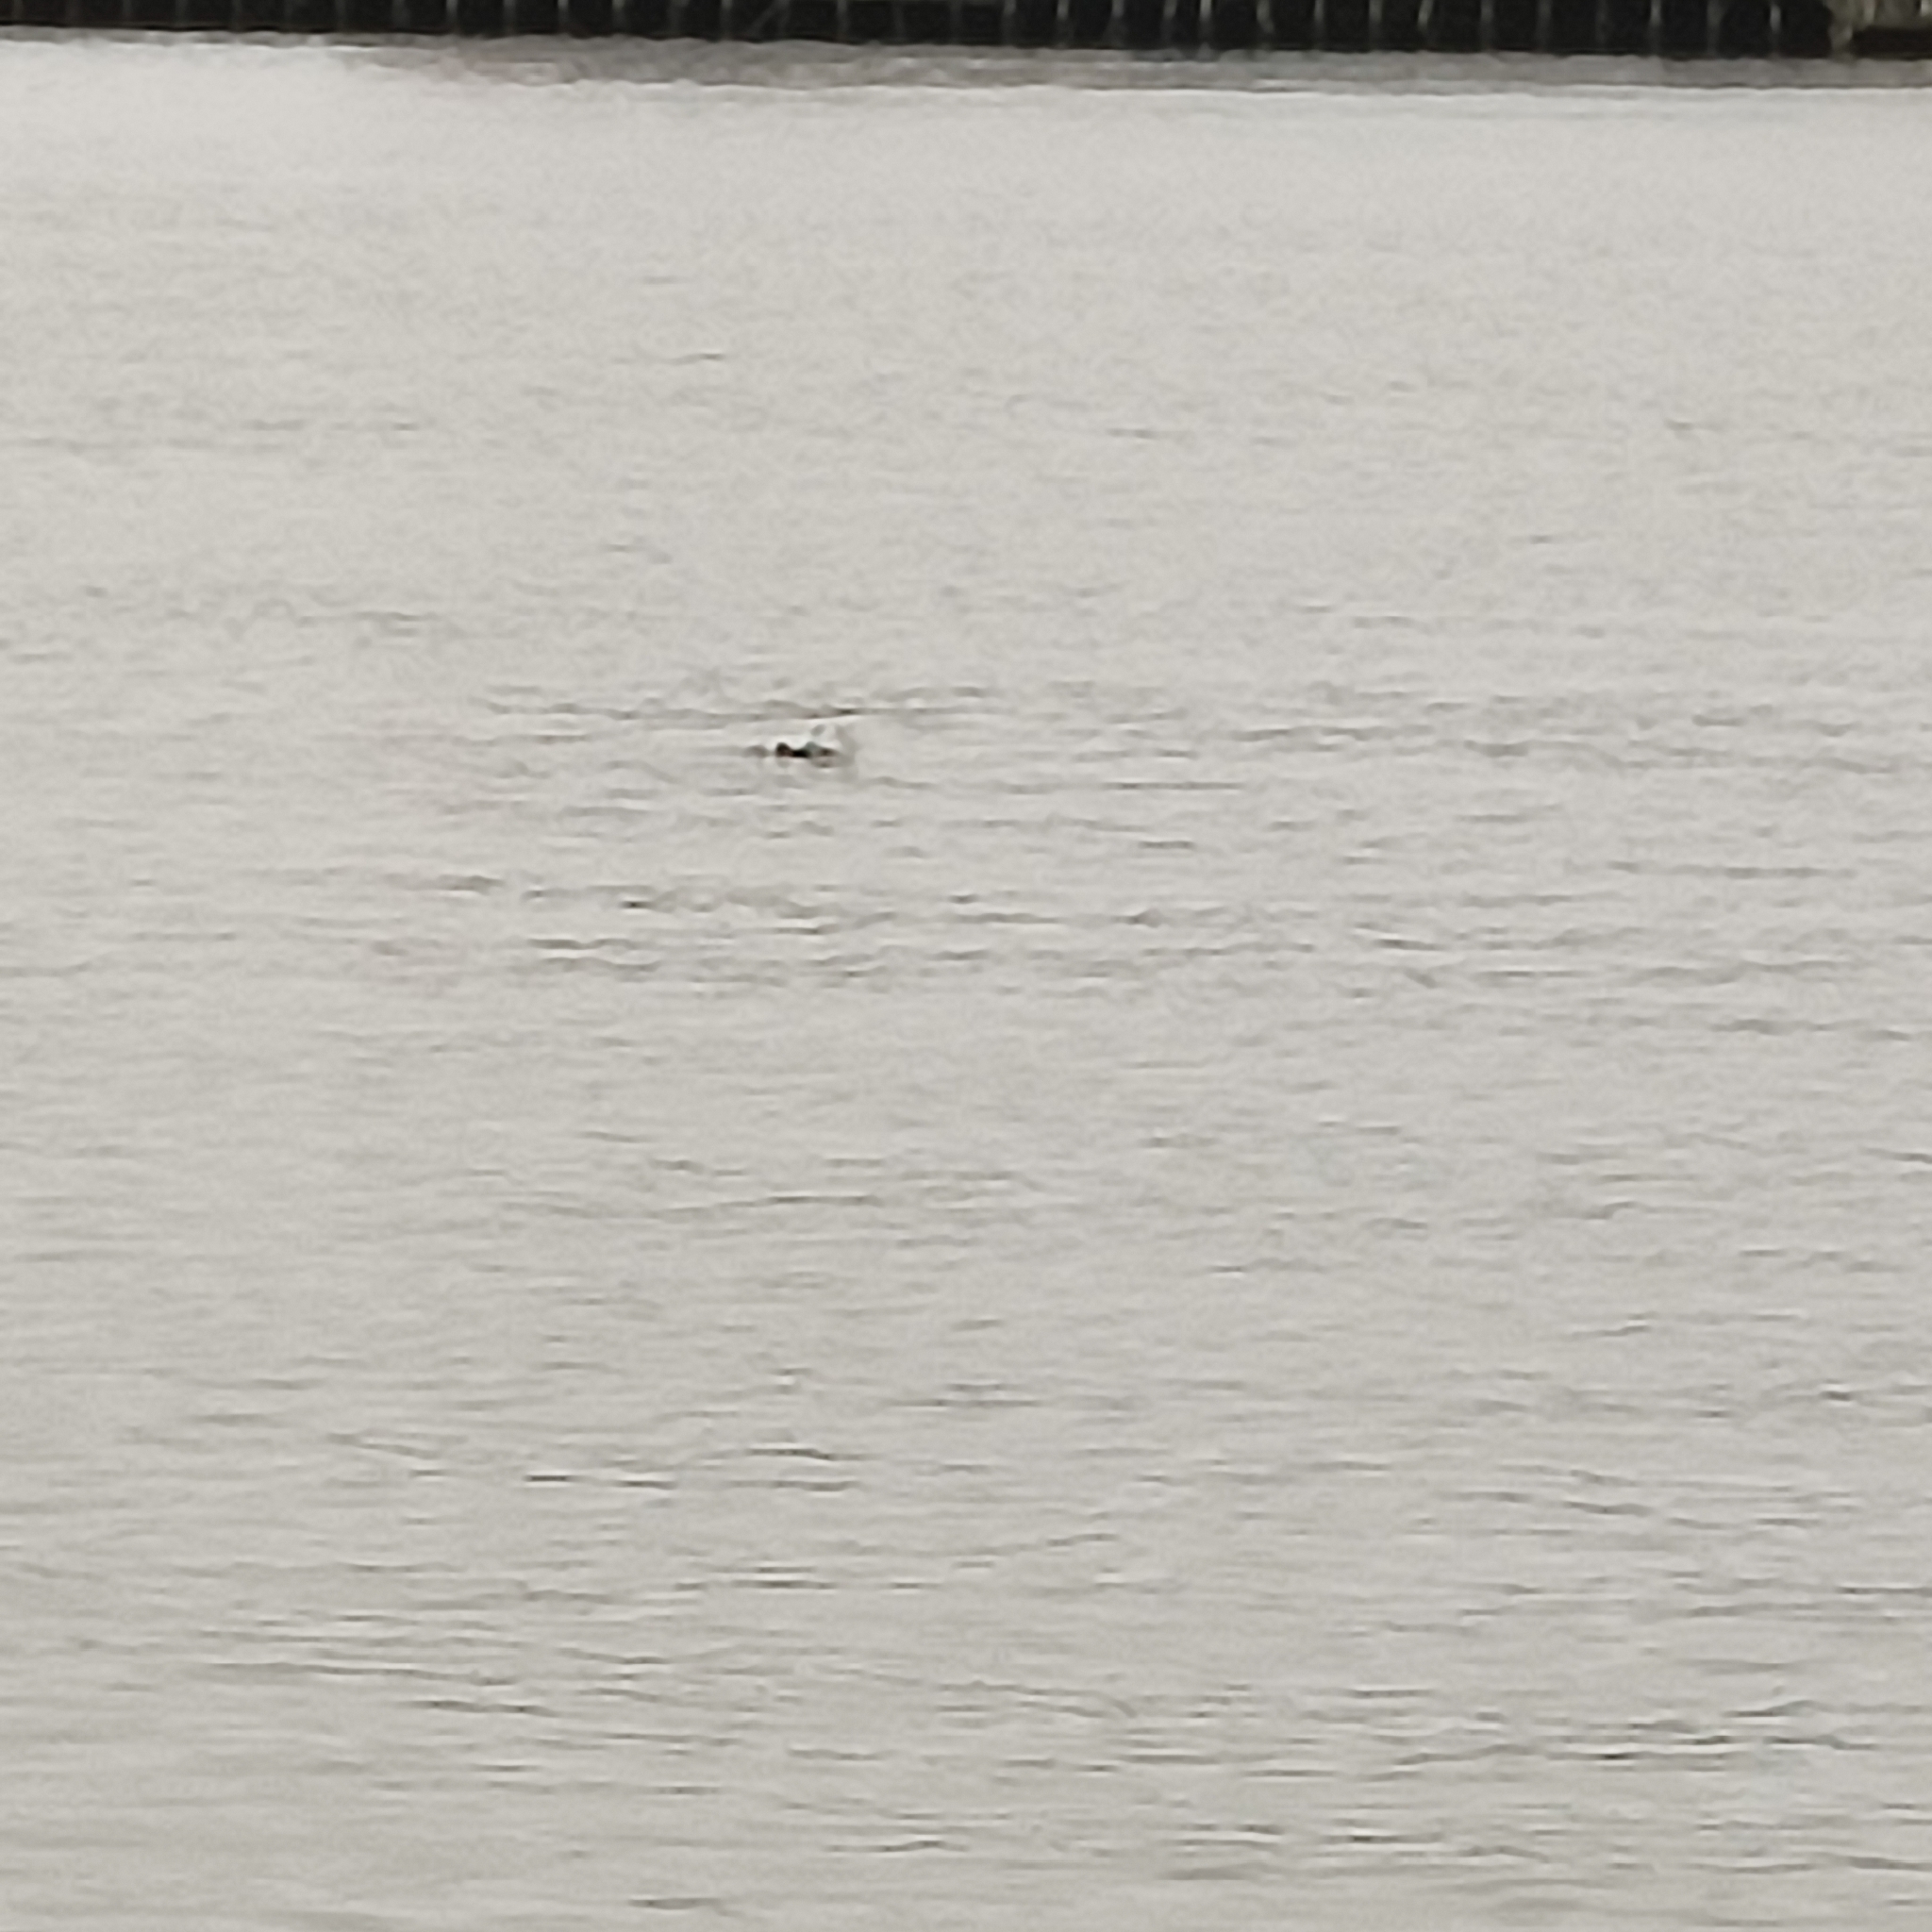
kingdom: Animalia
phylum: Chordata
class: Aves
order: Anseriformes
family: Anatidae
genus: Somateria
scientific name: Somateria mollissima
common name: Common eider
